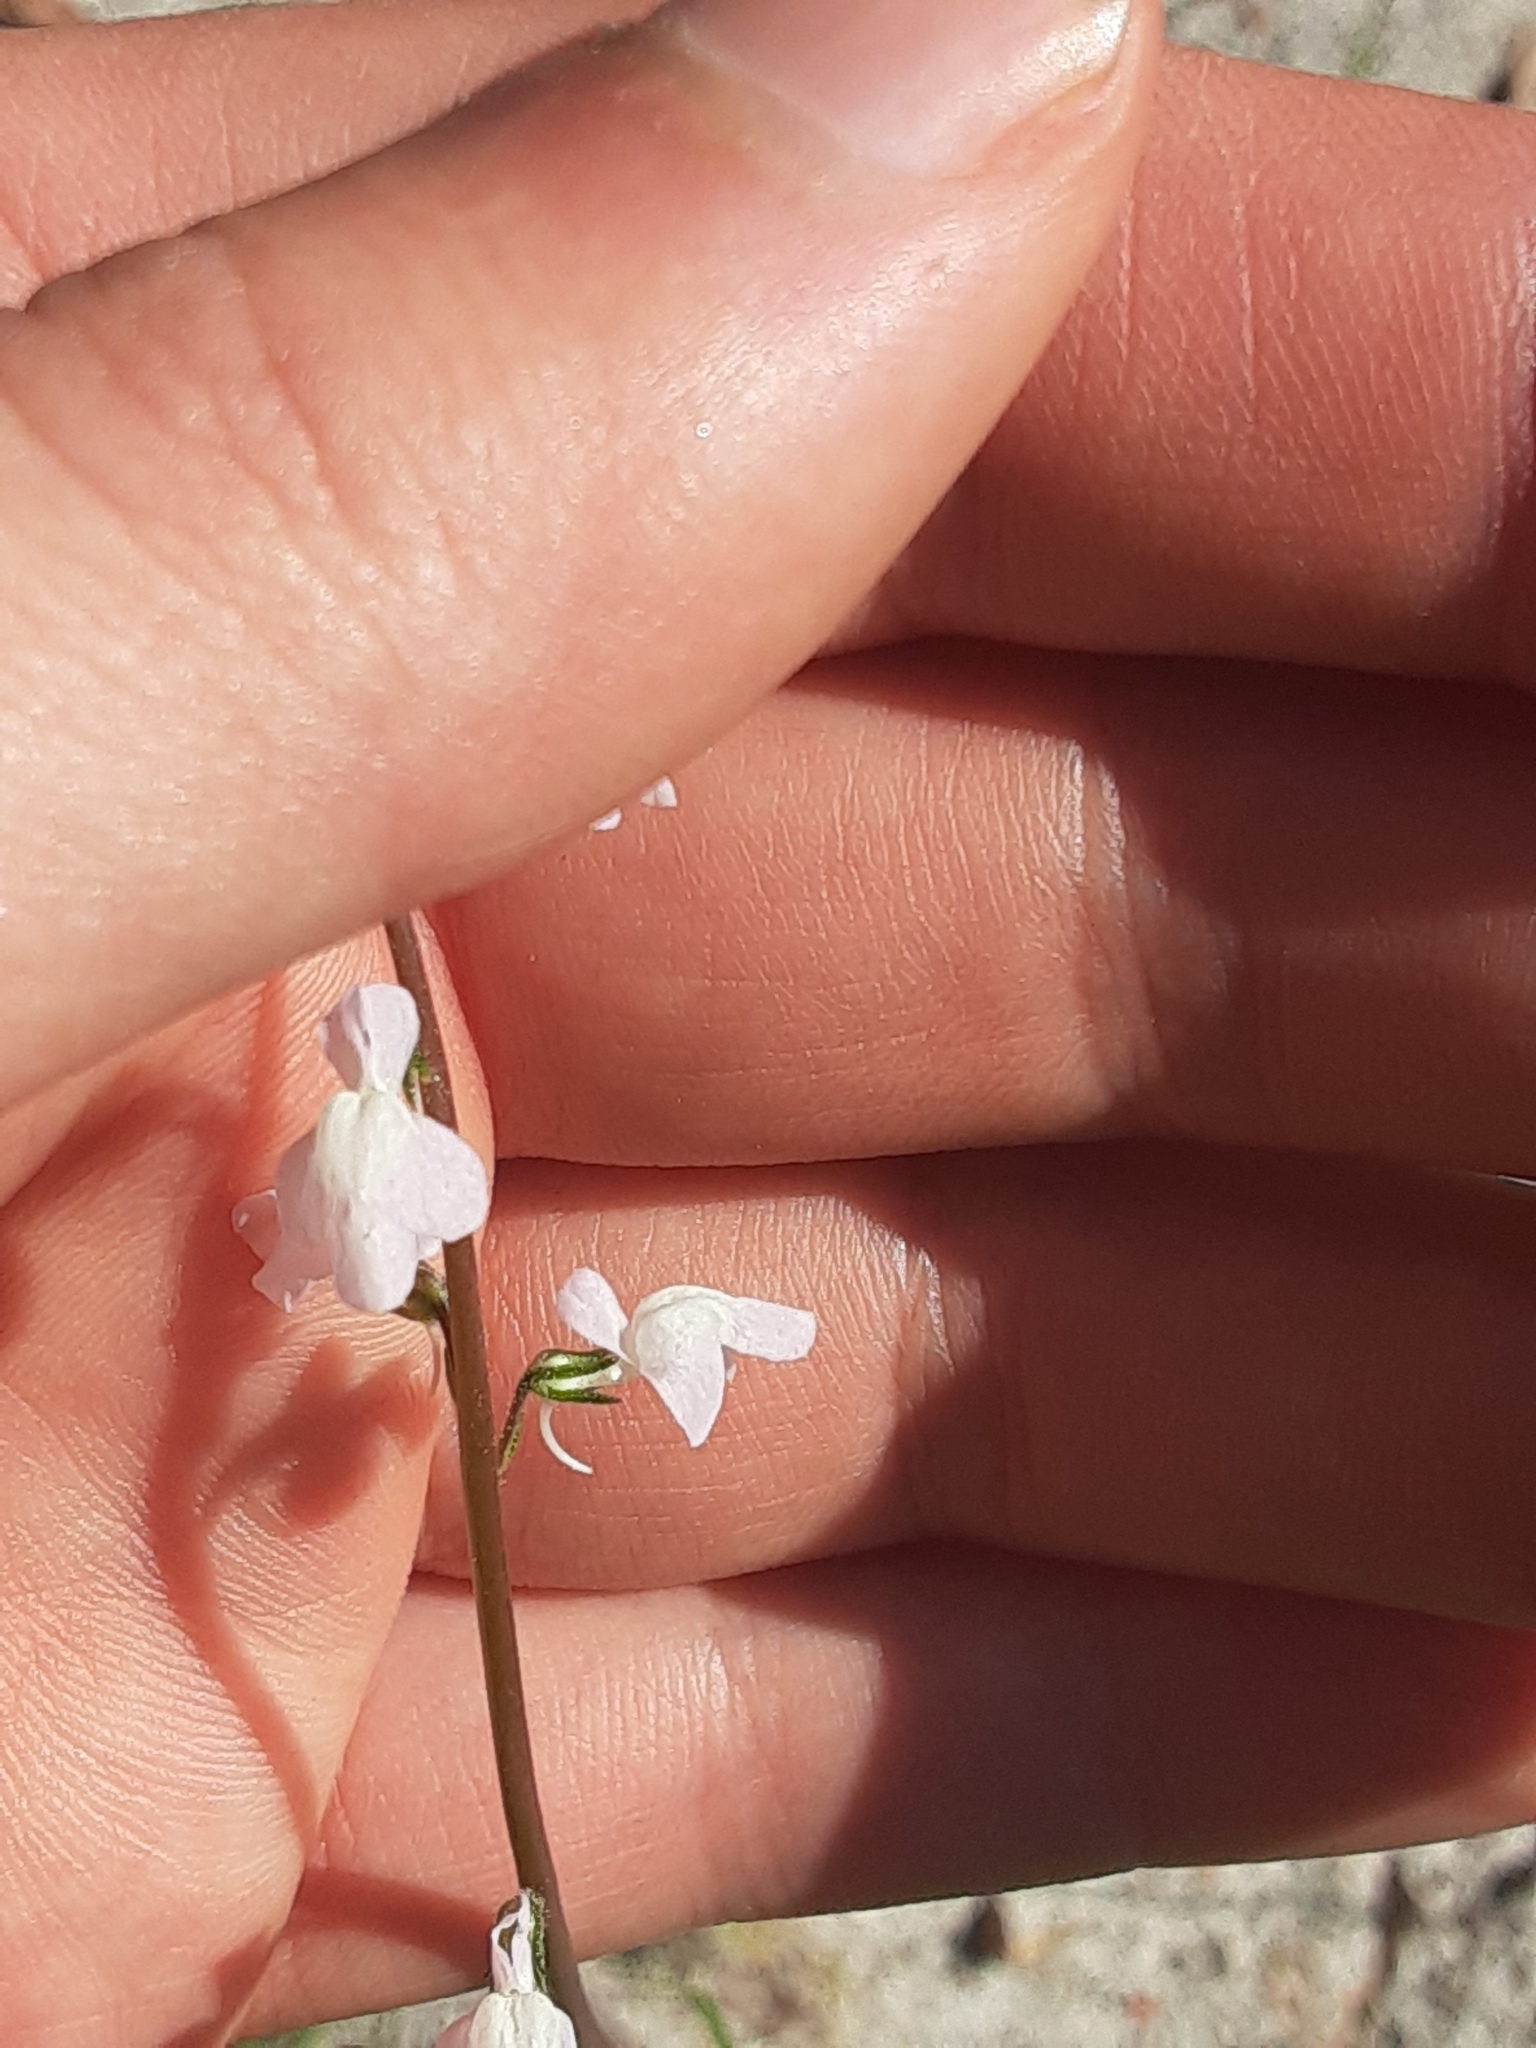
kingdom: Plantae
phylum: Tracheophyta
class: Magnoliopsida
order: Lamiales
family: Plantaginaceae
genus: Nuttallanthus
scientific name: Nuttallanthus canadensis
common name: Blue toadflax
